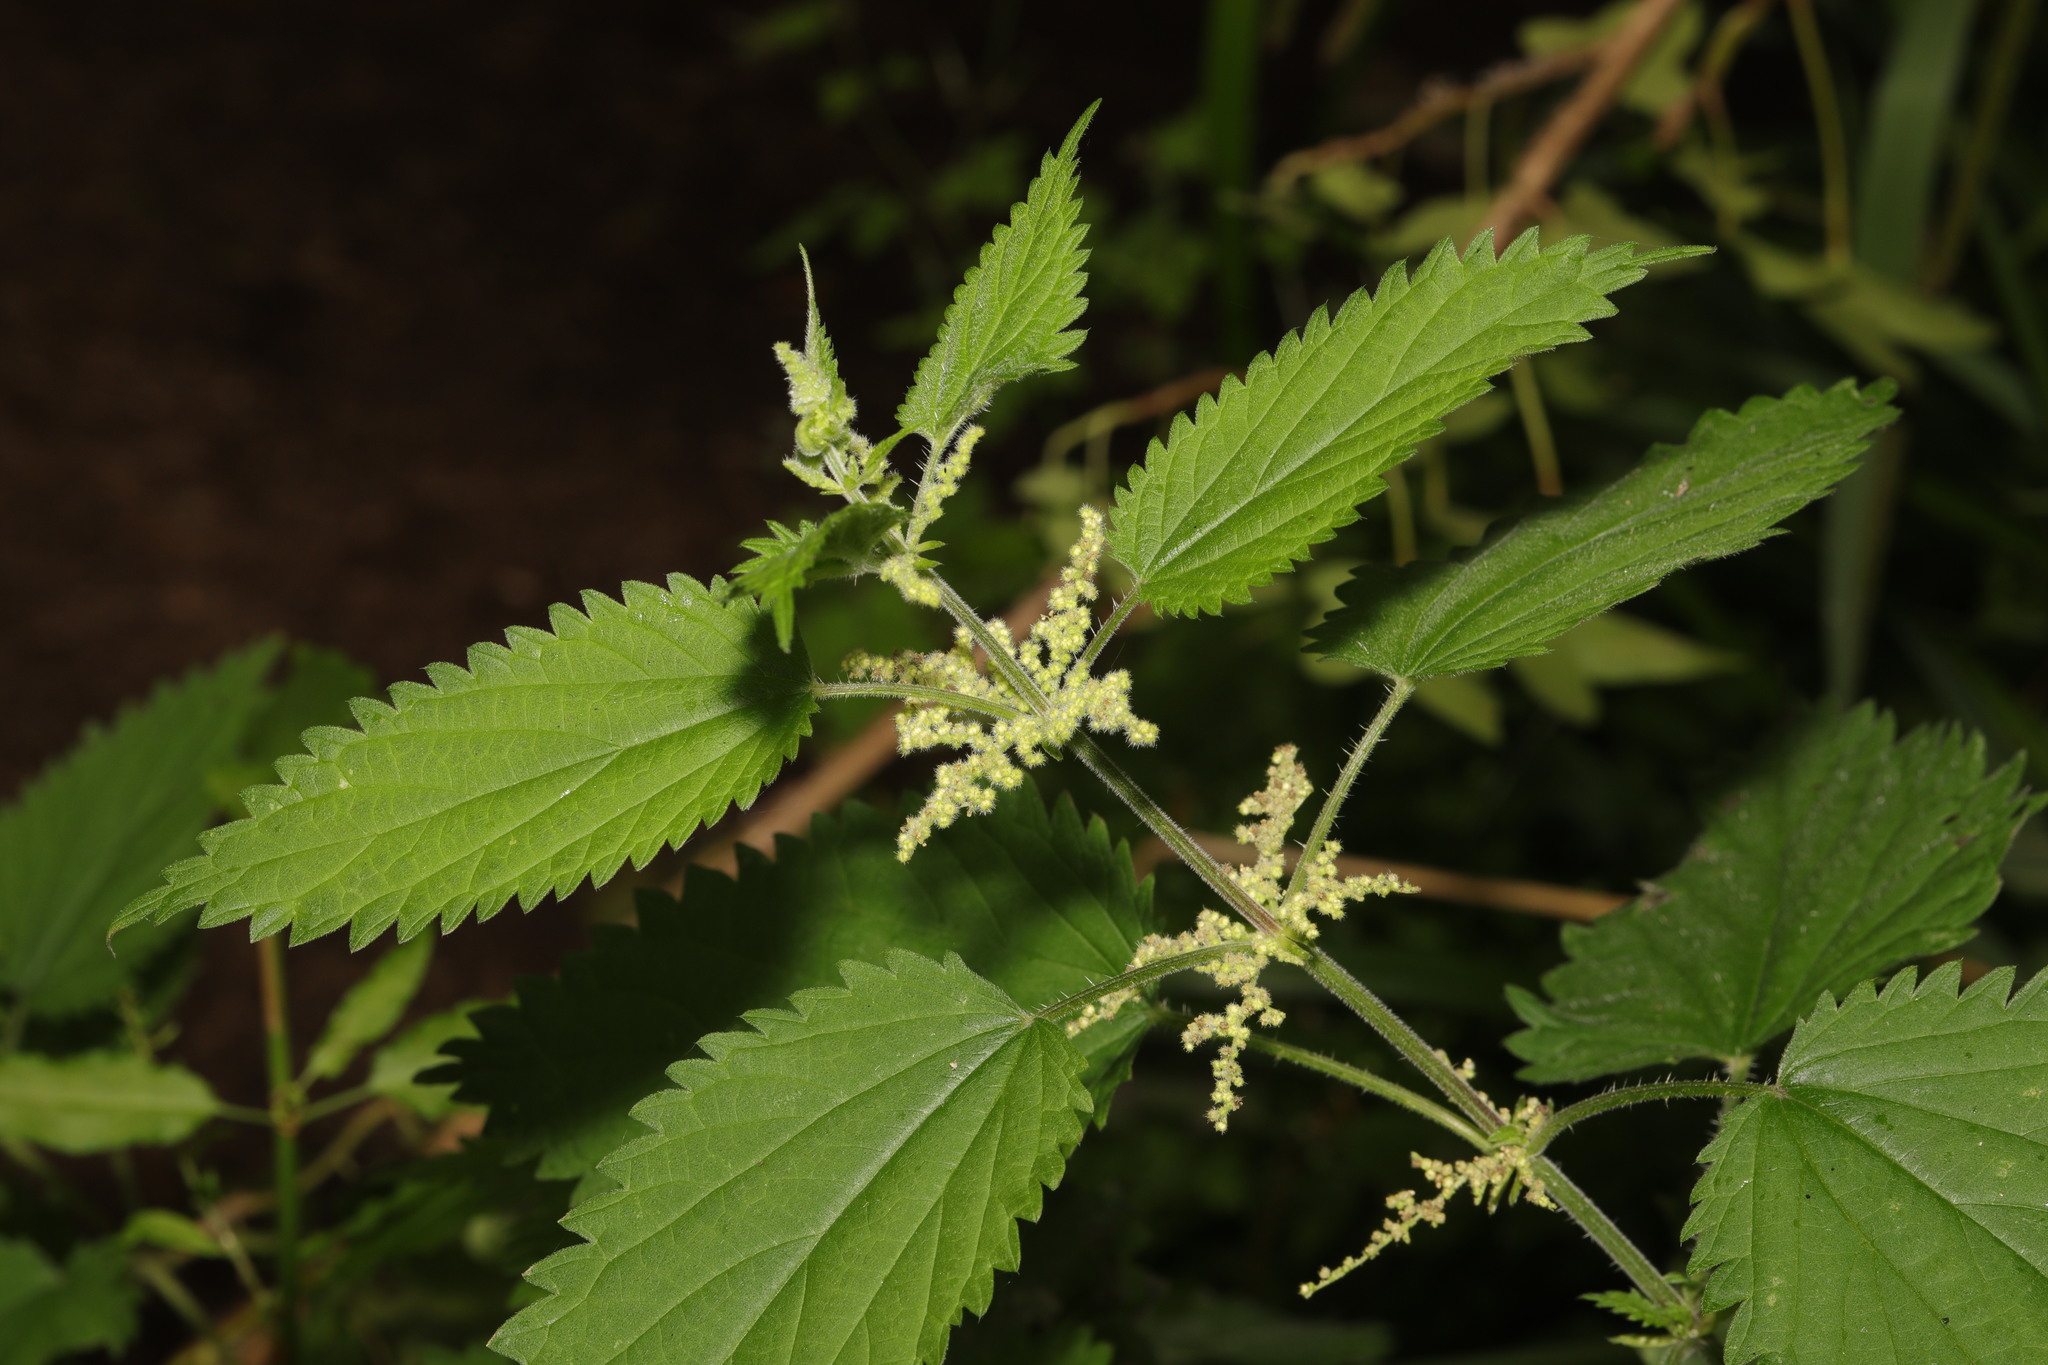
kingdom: Plantae
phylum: Tracheophyta
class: Magnoliopsida
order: Rosales
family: Urticaceae
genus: Urtica
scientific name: Urtica dioica
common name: Common nettle
